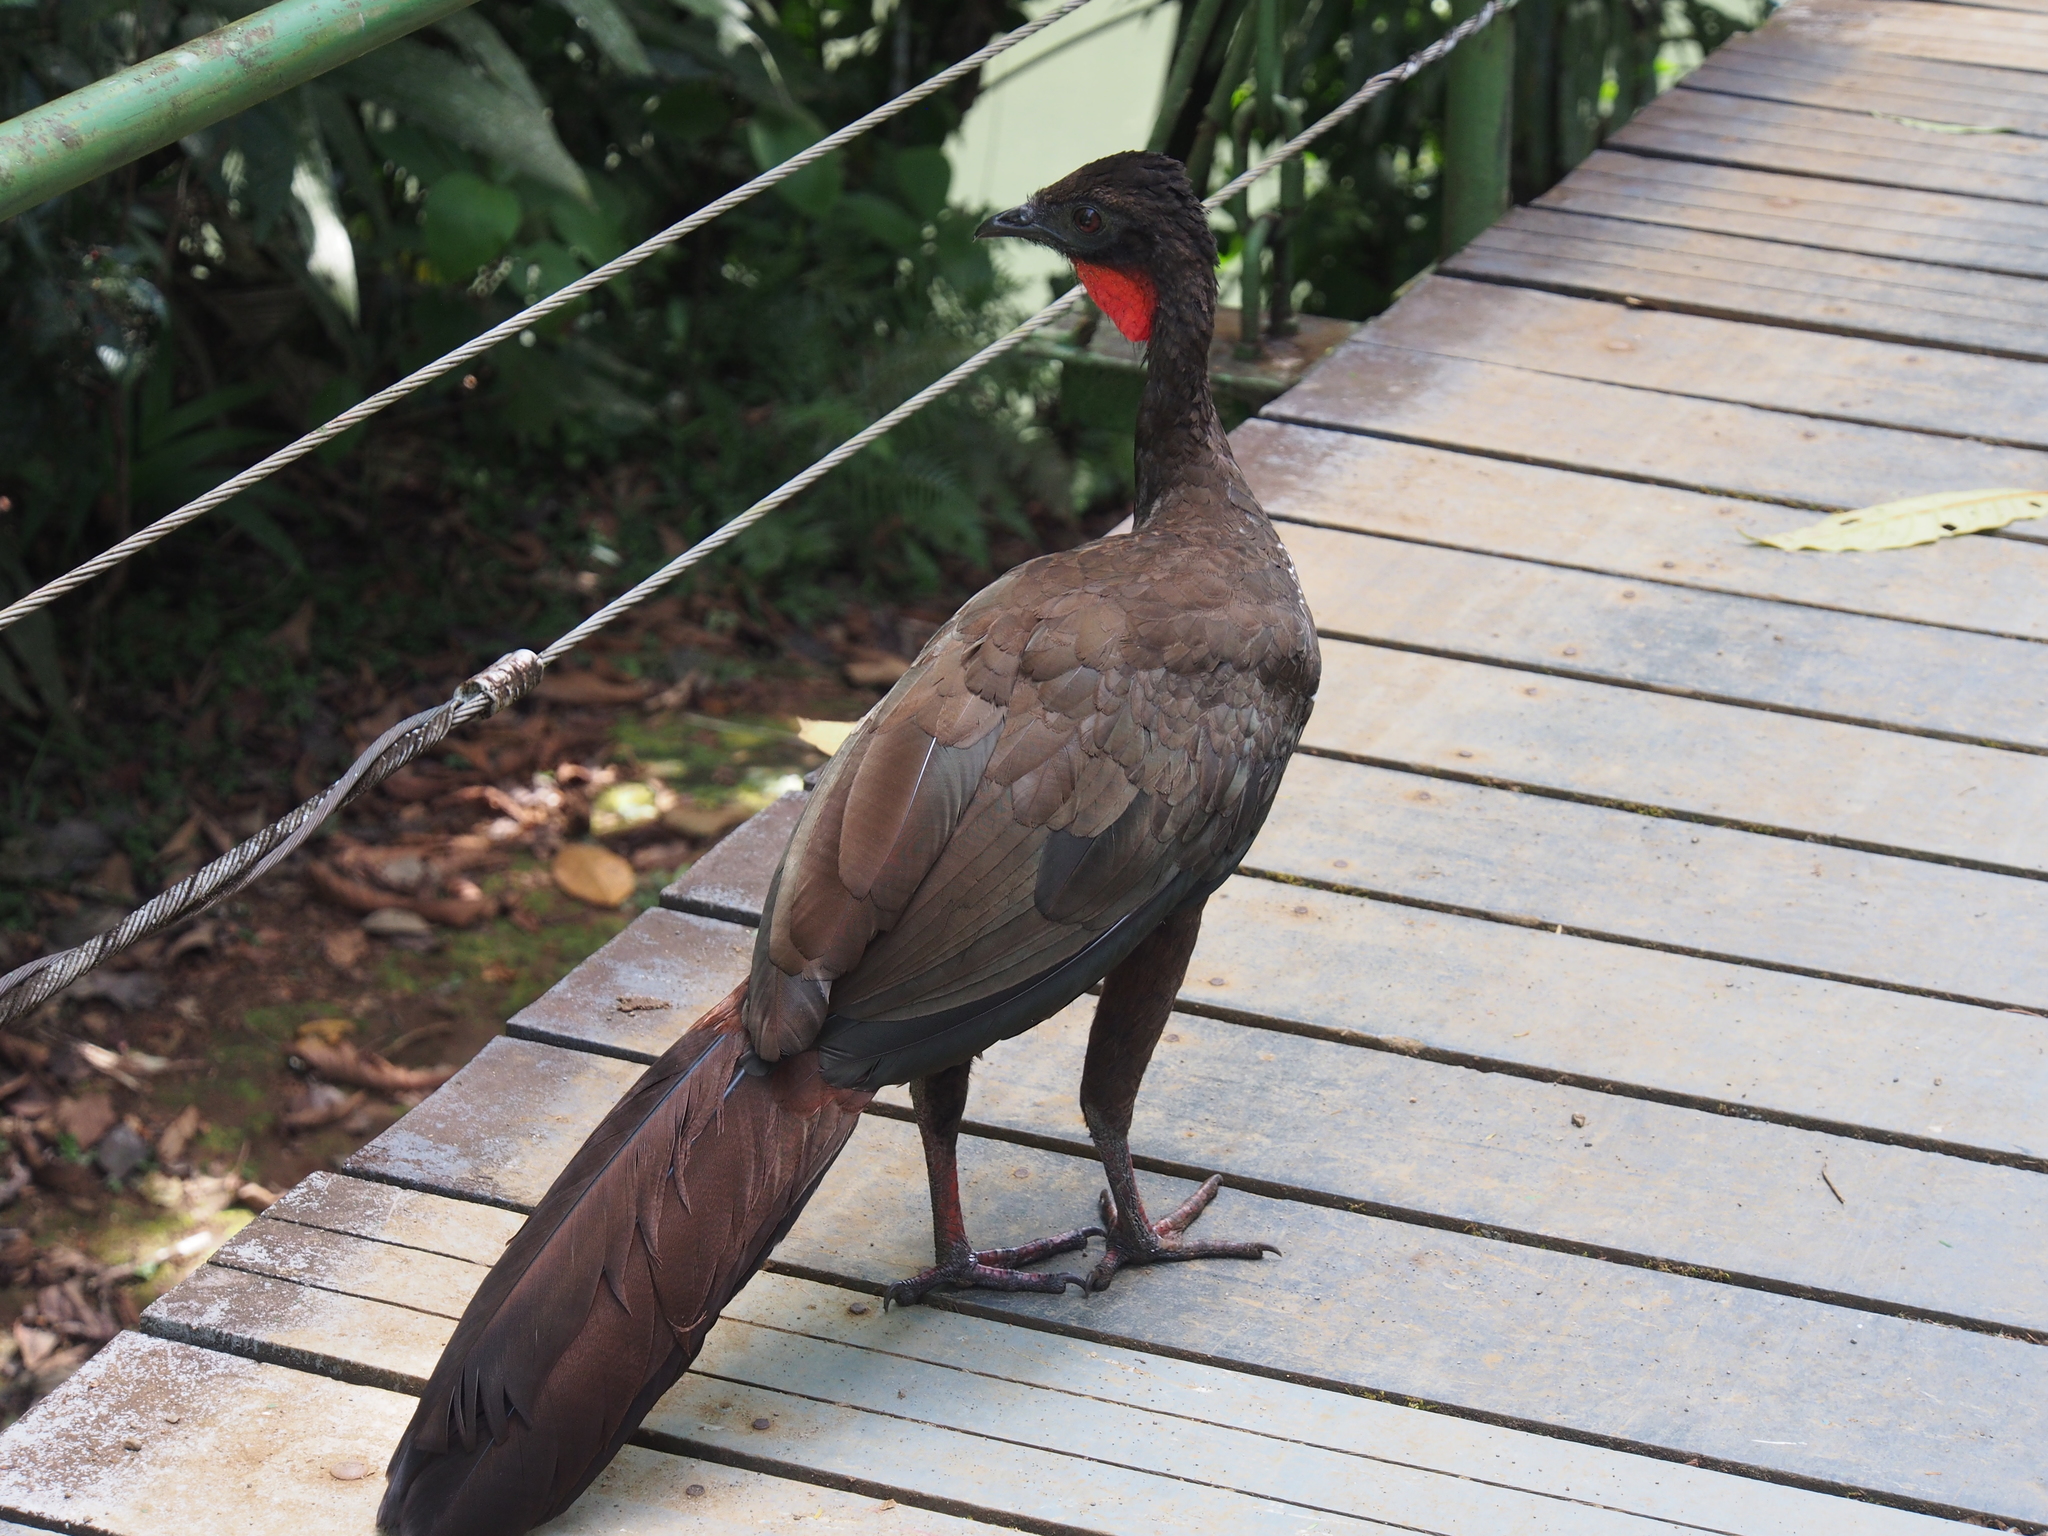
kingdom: Animalia
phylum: Chordata
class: Aves
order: Galliformes
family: Cracidae
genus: Penelope
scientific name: Penelope purpurascens
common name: Crested guan
